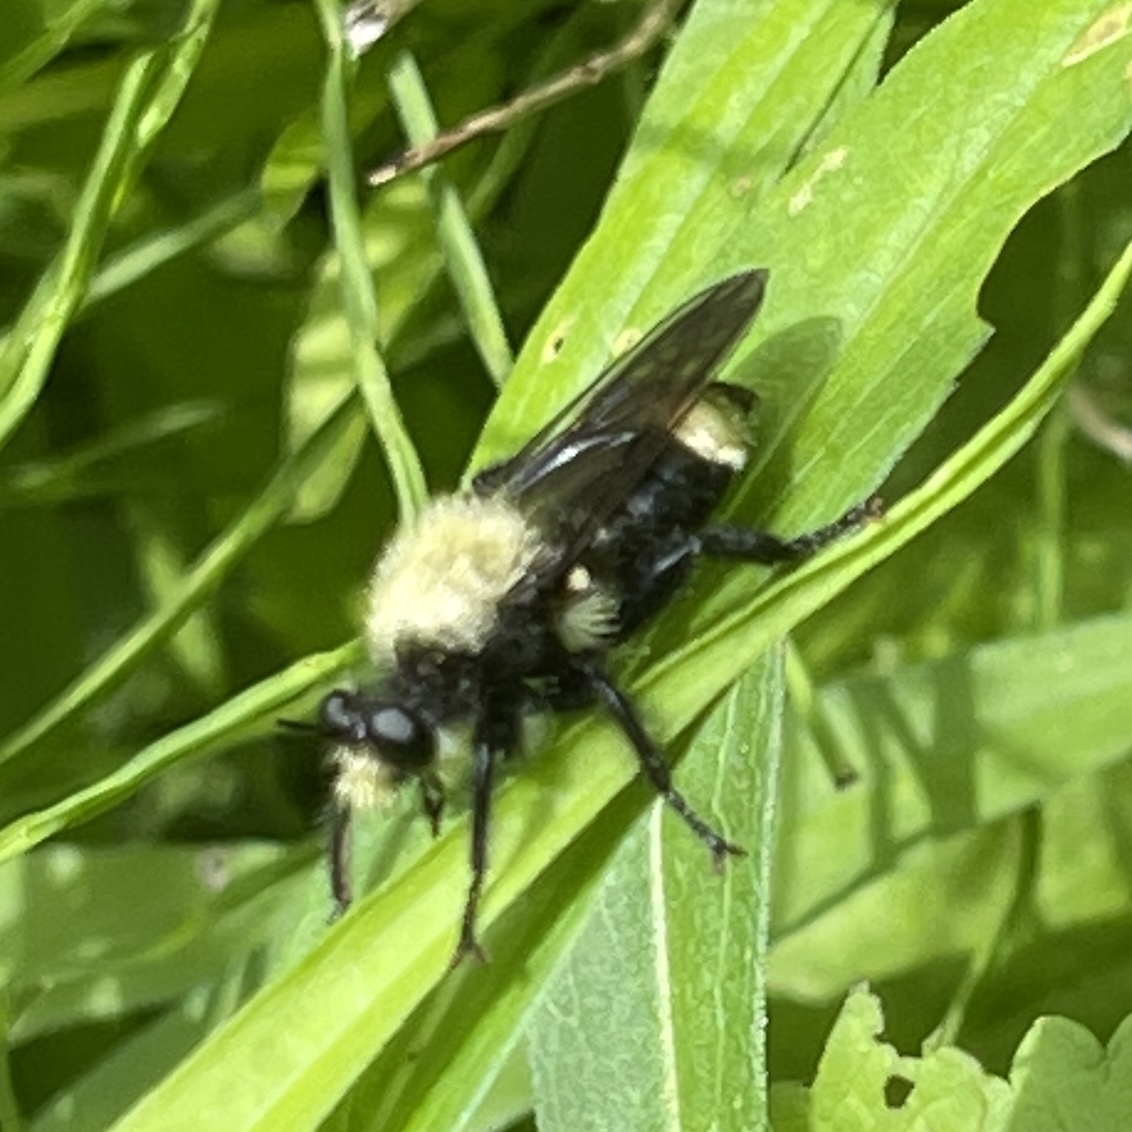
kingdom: Animalia
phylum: Arthropoda
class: Insecta
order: Diptera
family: Asilidae
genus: Laphria
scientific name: Laphria divisor
